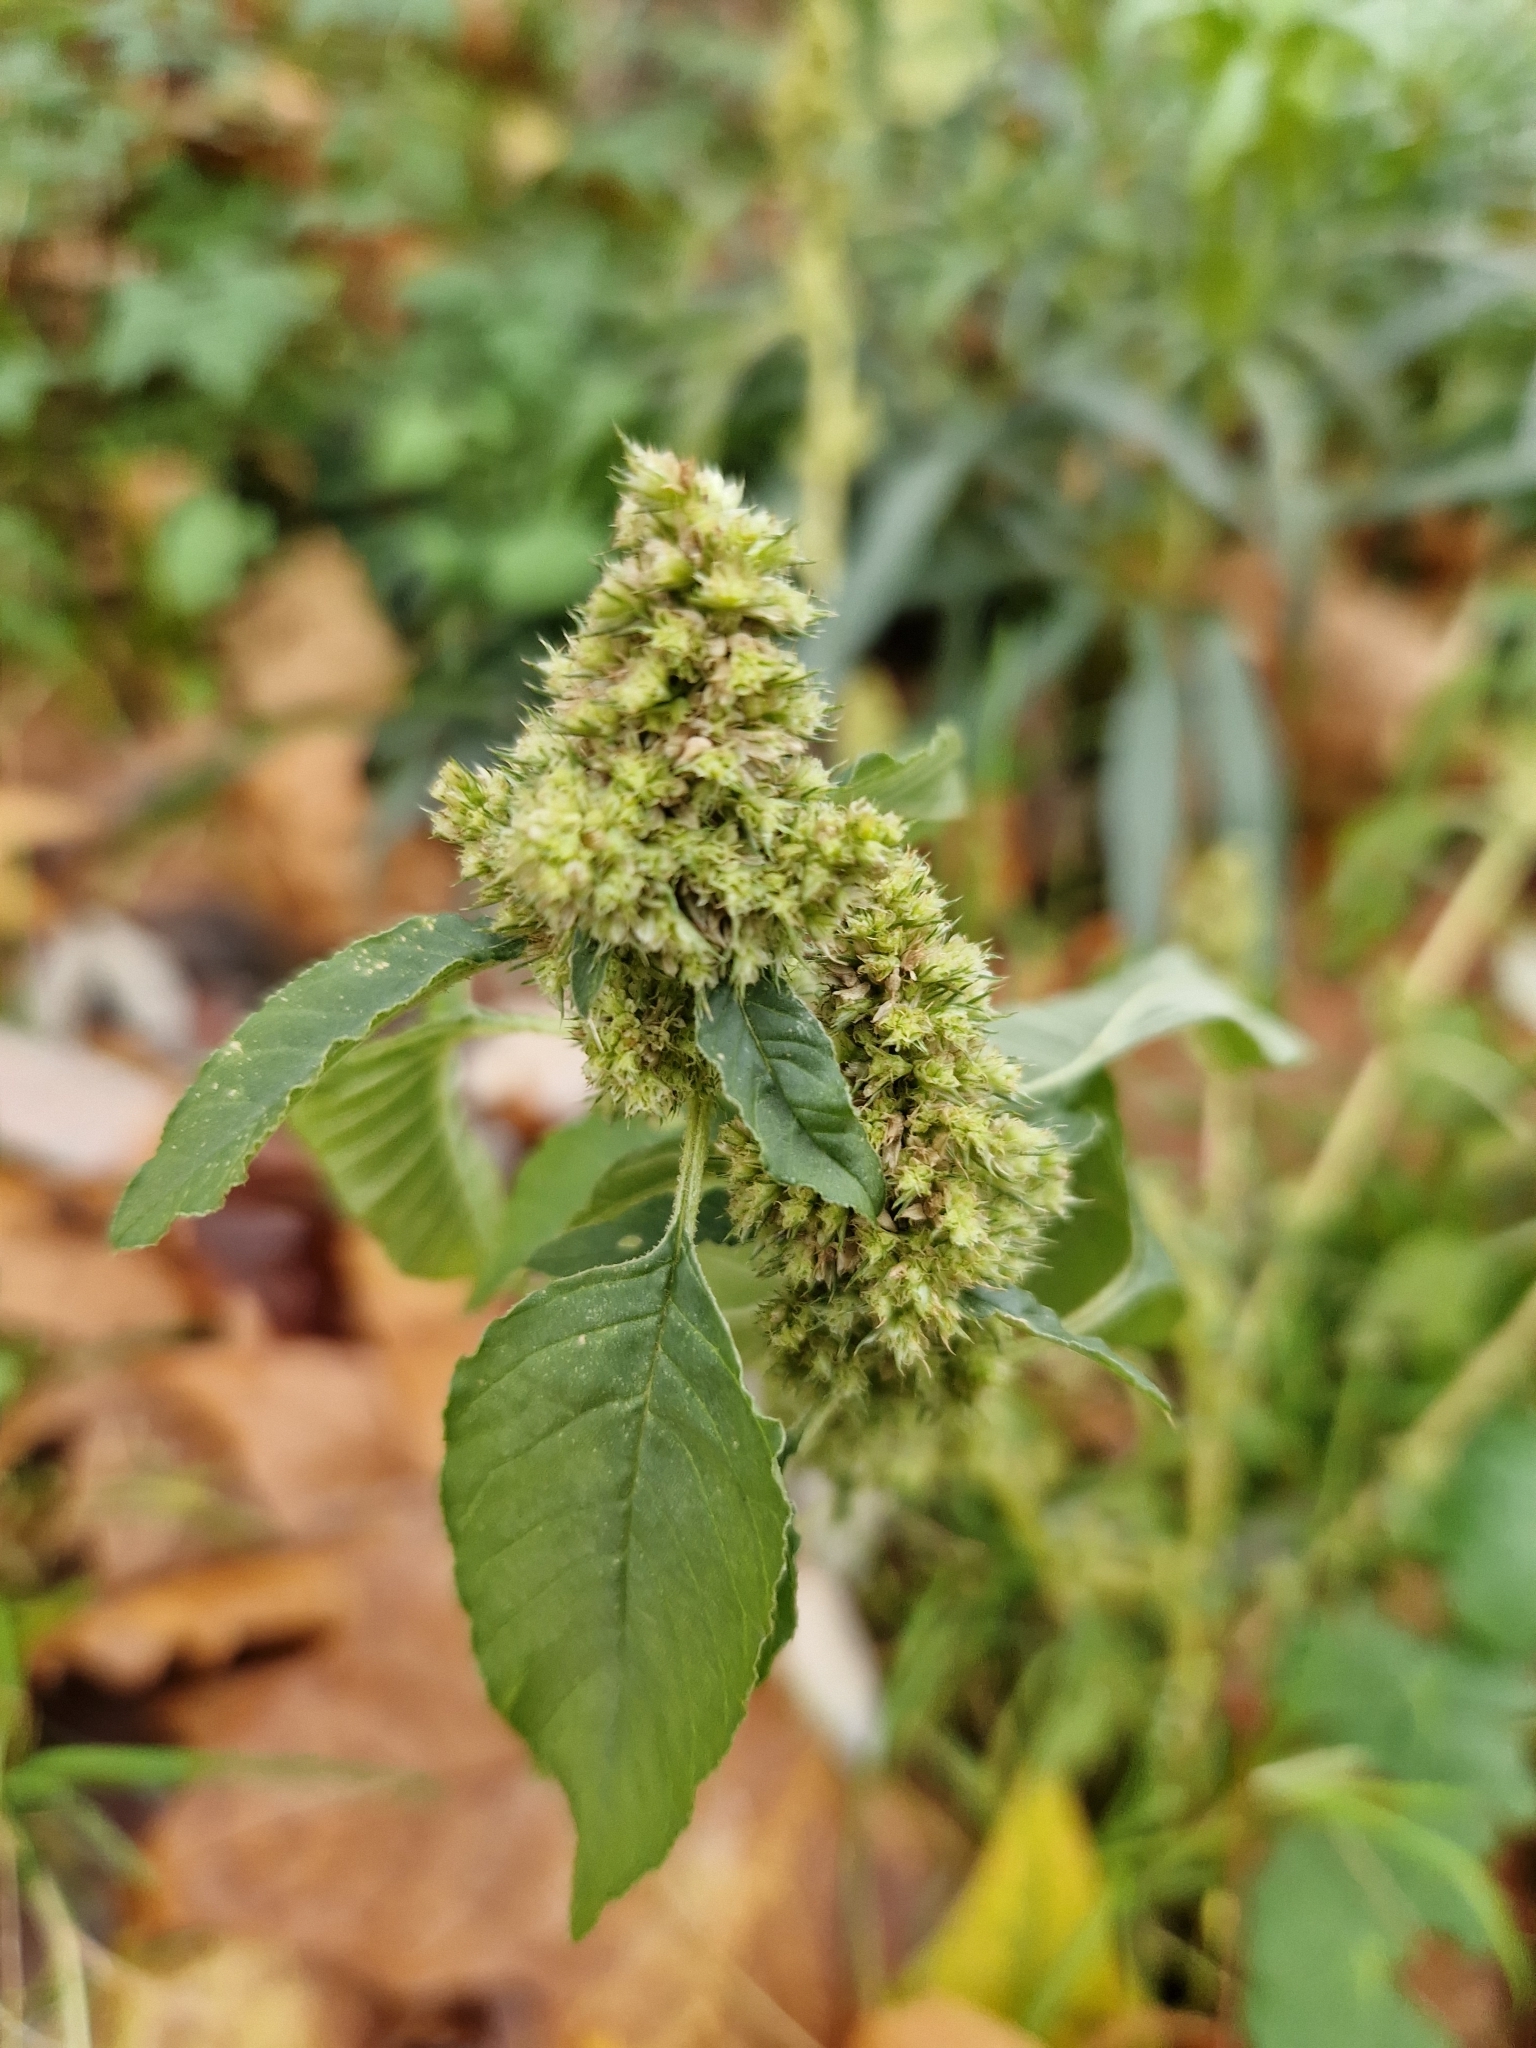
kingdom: Plantae
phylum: Tracheophyta
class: Magnoliopsida
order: Caryophyllales
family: Amaranthaceae
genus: Amaranthus
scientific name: Amaranthus retroflexus
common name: Redroot amaranth
